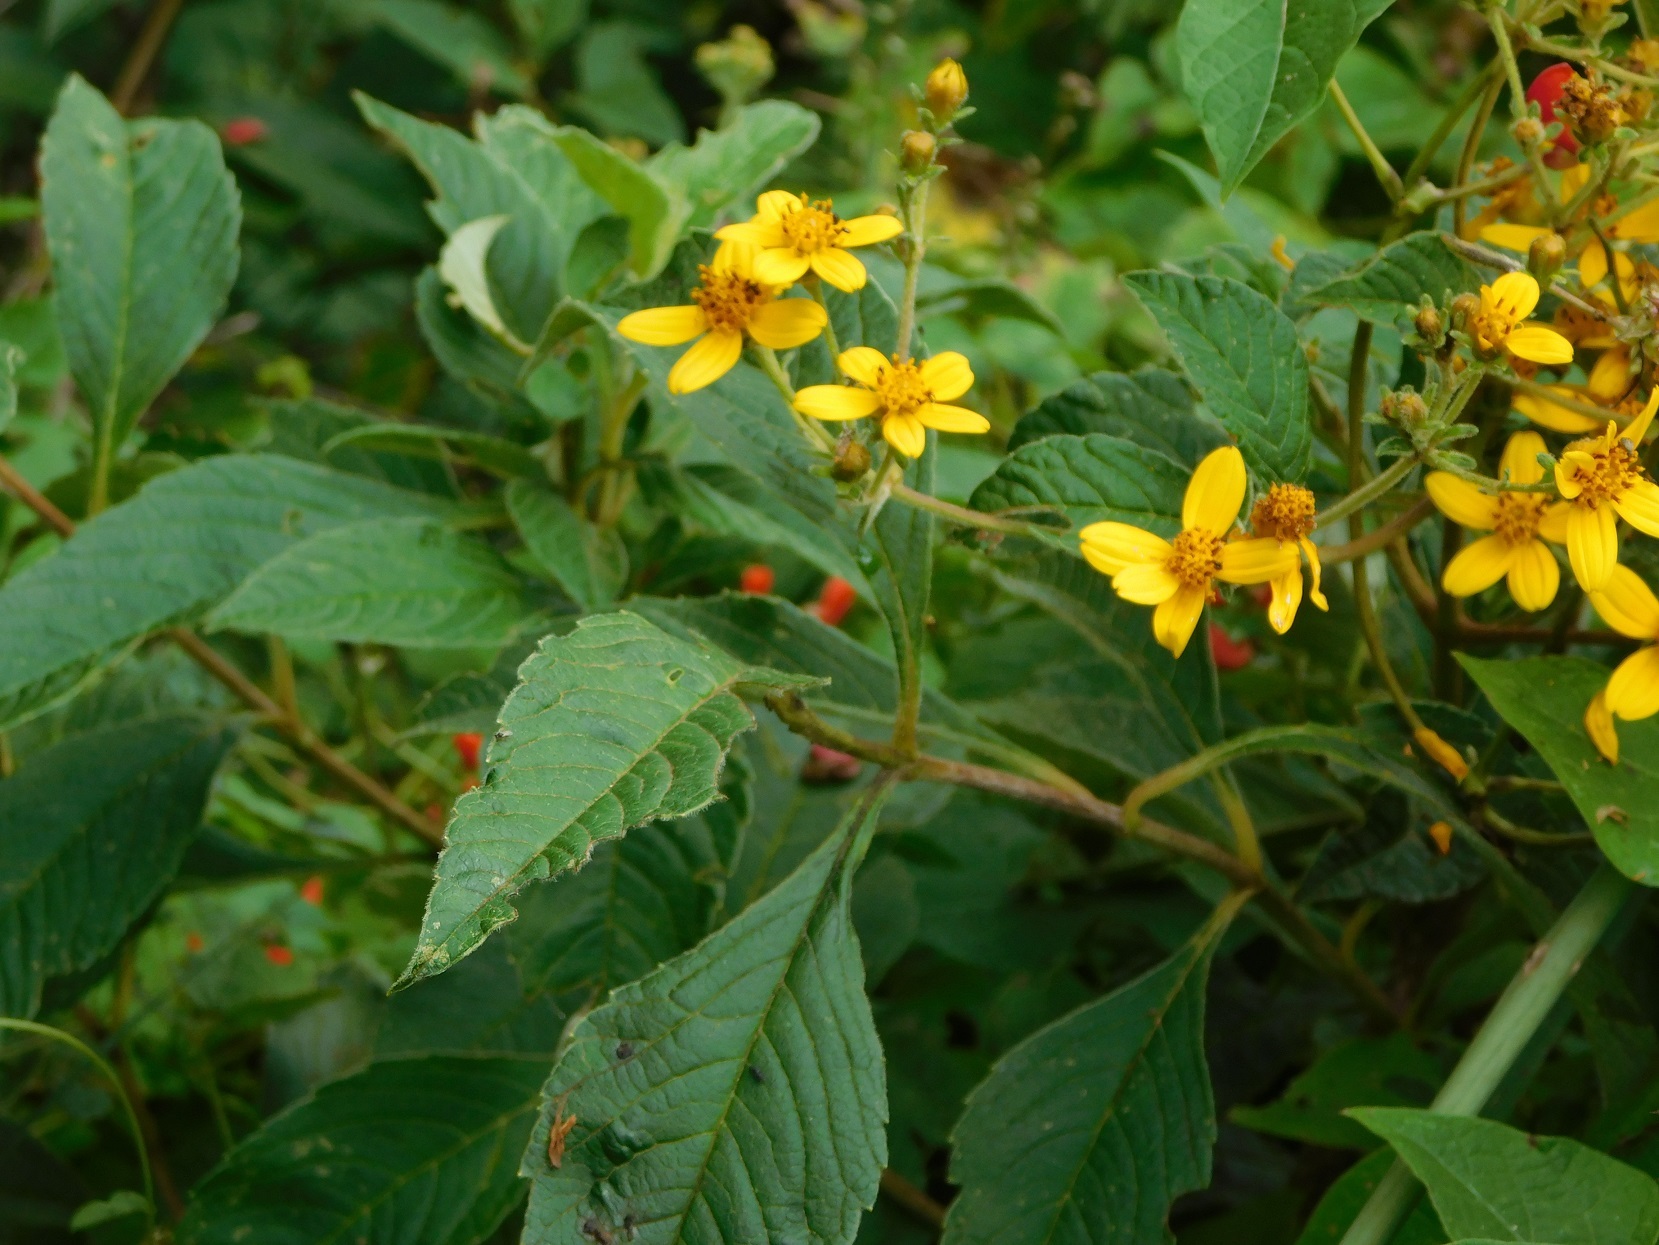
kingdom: Plantae
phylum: Tracheophyta
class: Magnoliopsida
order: Asterales
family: Asteraceae
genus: Electranthera
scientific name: Electranthera mutica
